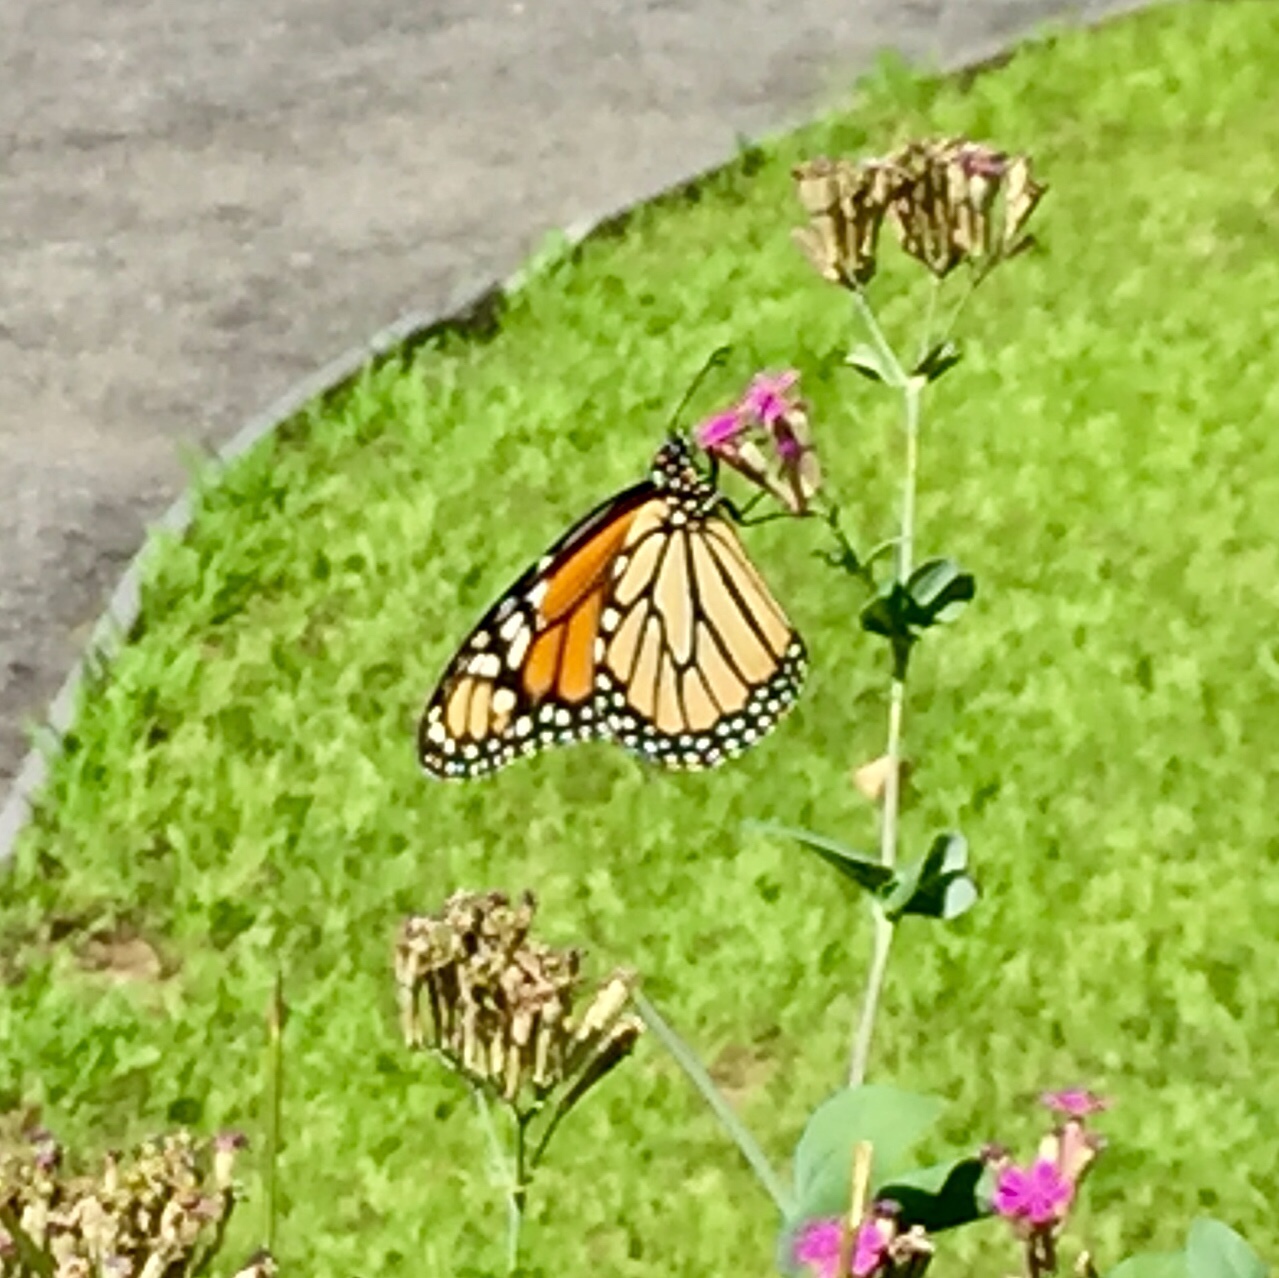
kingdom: Animalia
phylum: Arthropoda
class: Insecta
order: Lepidoptera
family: Nymphalidae
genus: Danaus
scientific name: Danaus plexippus
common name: Monarch
